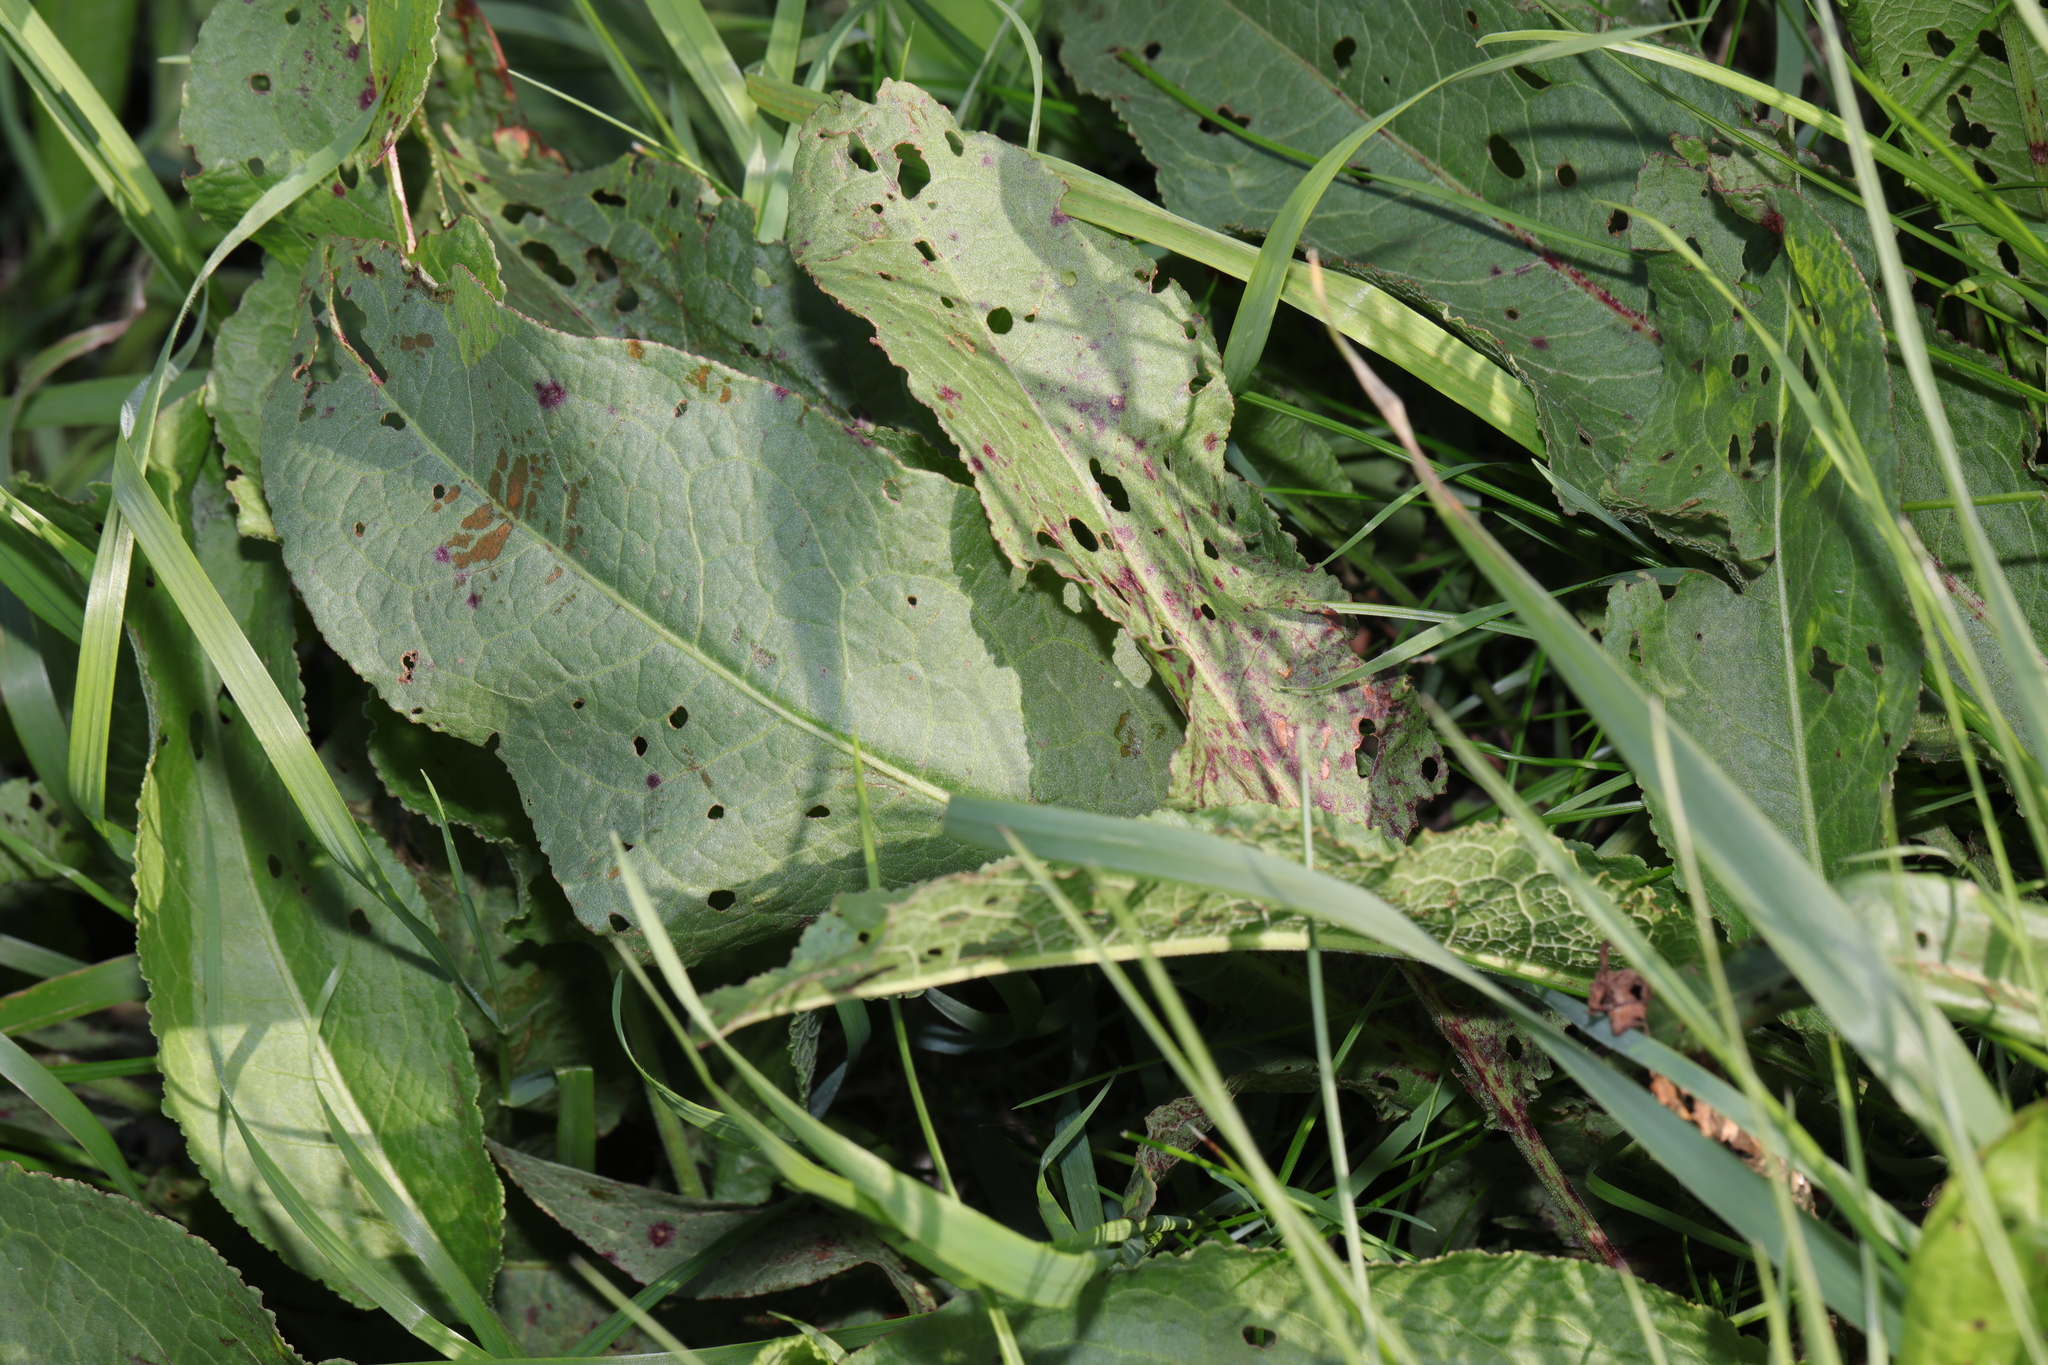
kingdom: Plantae
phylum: Tracheophyta
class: Magnoliopsida
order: Caryophyllales
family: Polygonaceae
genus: Rumex
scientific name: Rumex obtusifolius
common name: Bitter dock
